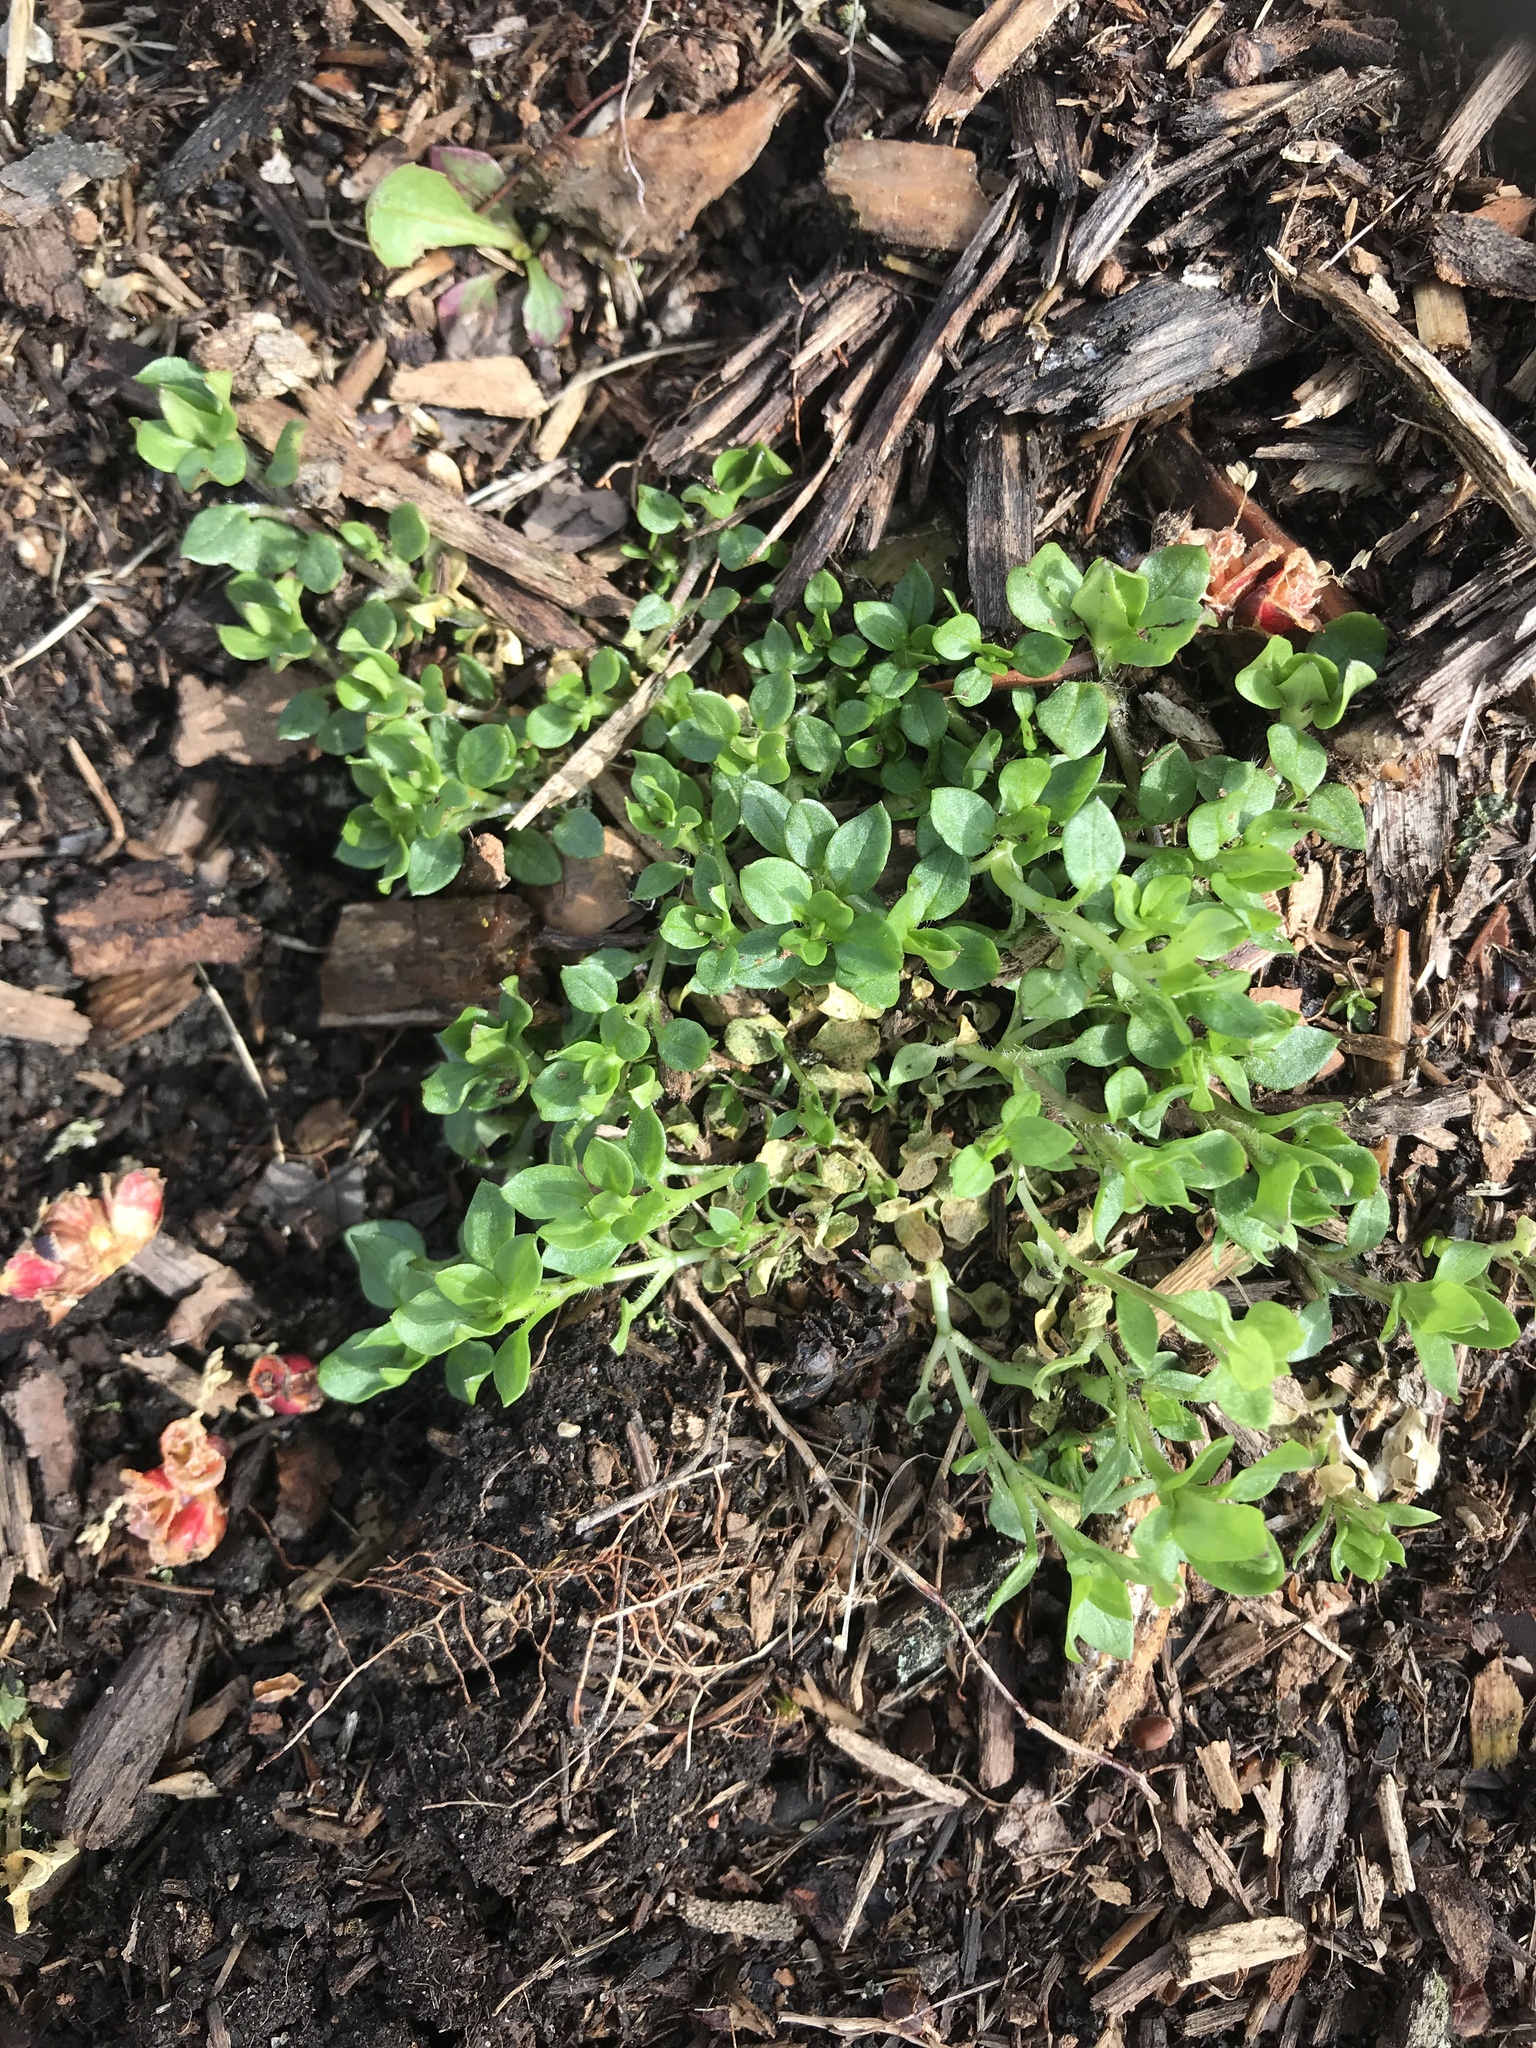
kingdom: Plantae
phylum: Tracheophyta
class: Magnoliopsida
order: Caryophyllales
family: Caryophyllaceae
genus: Cerastium
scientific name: Cerastium fontanum
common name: Common mouse-ear
